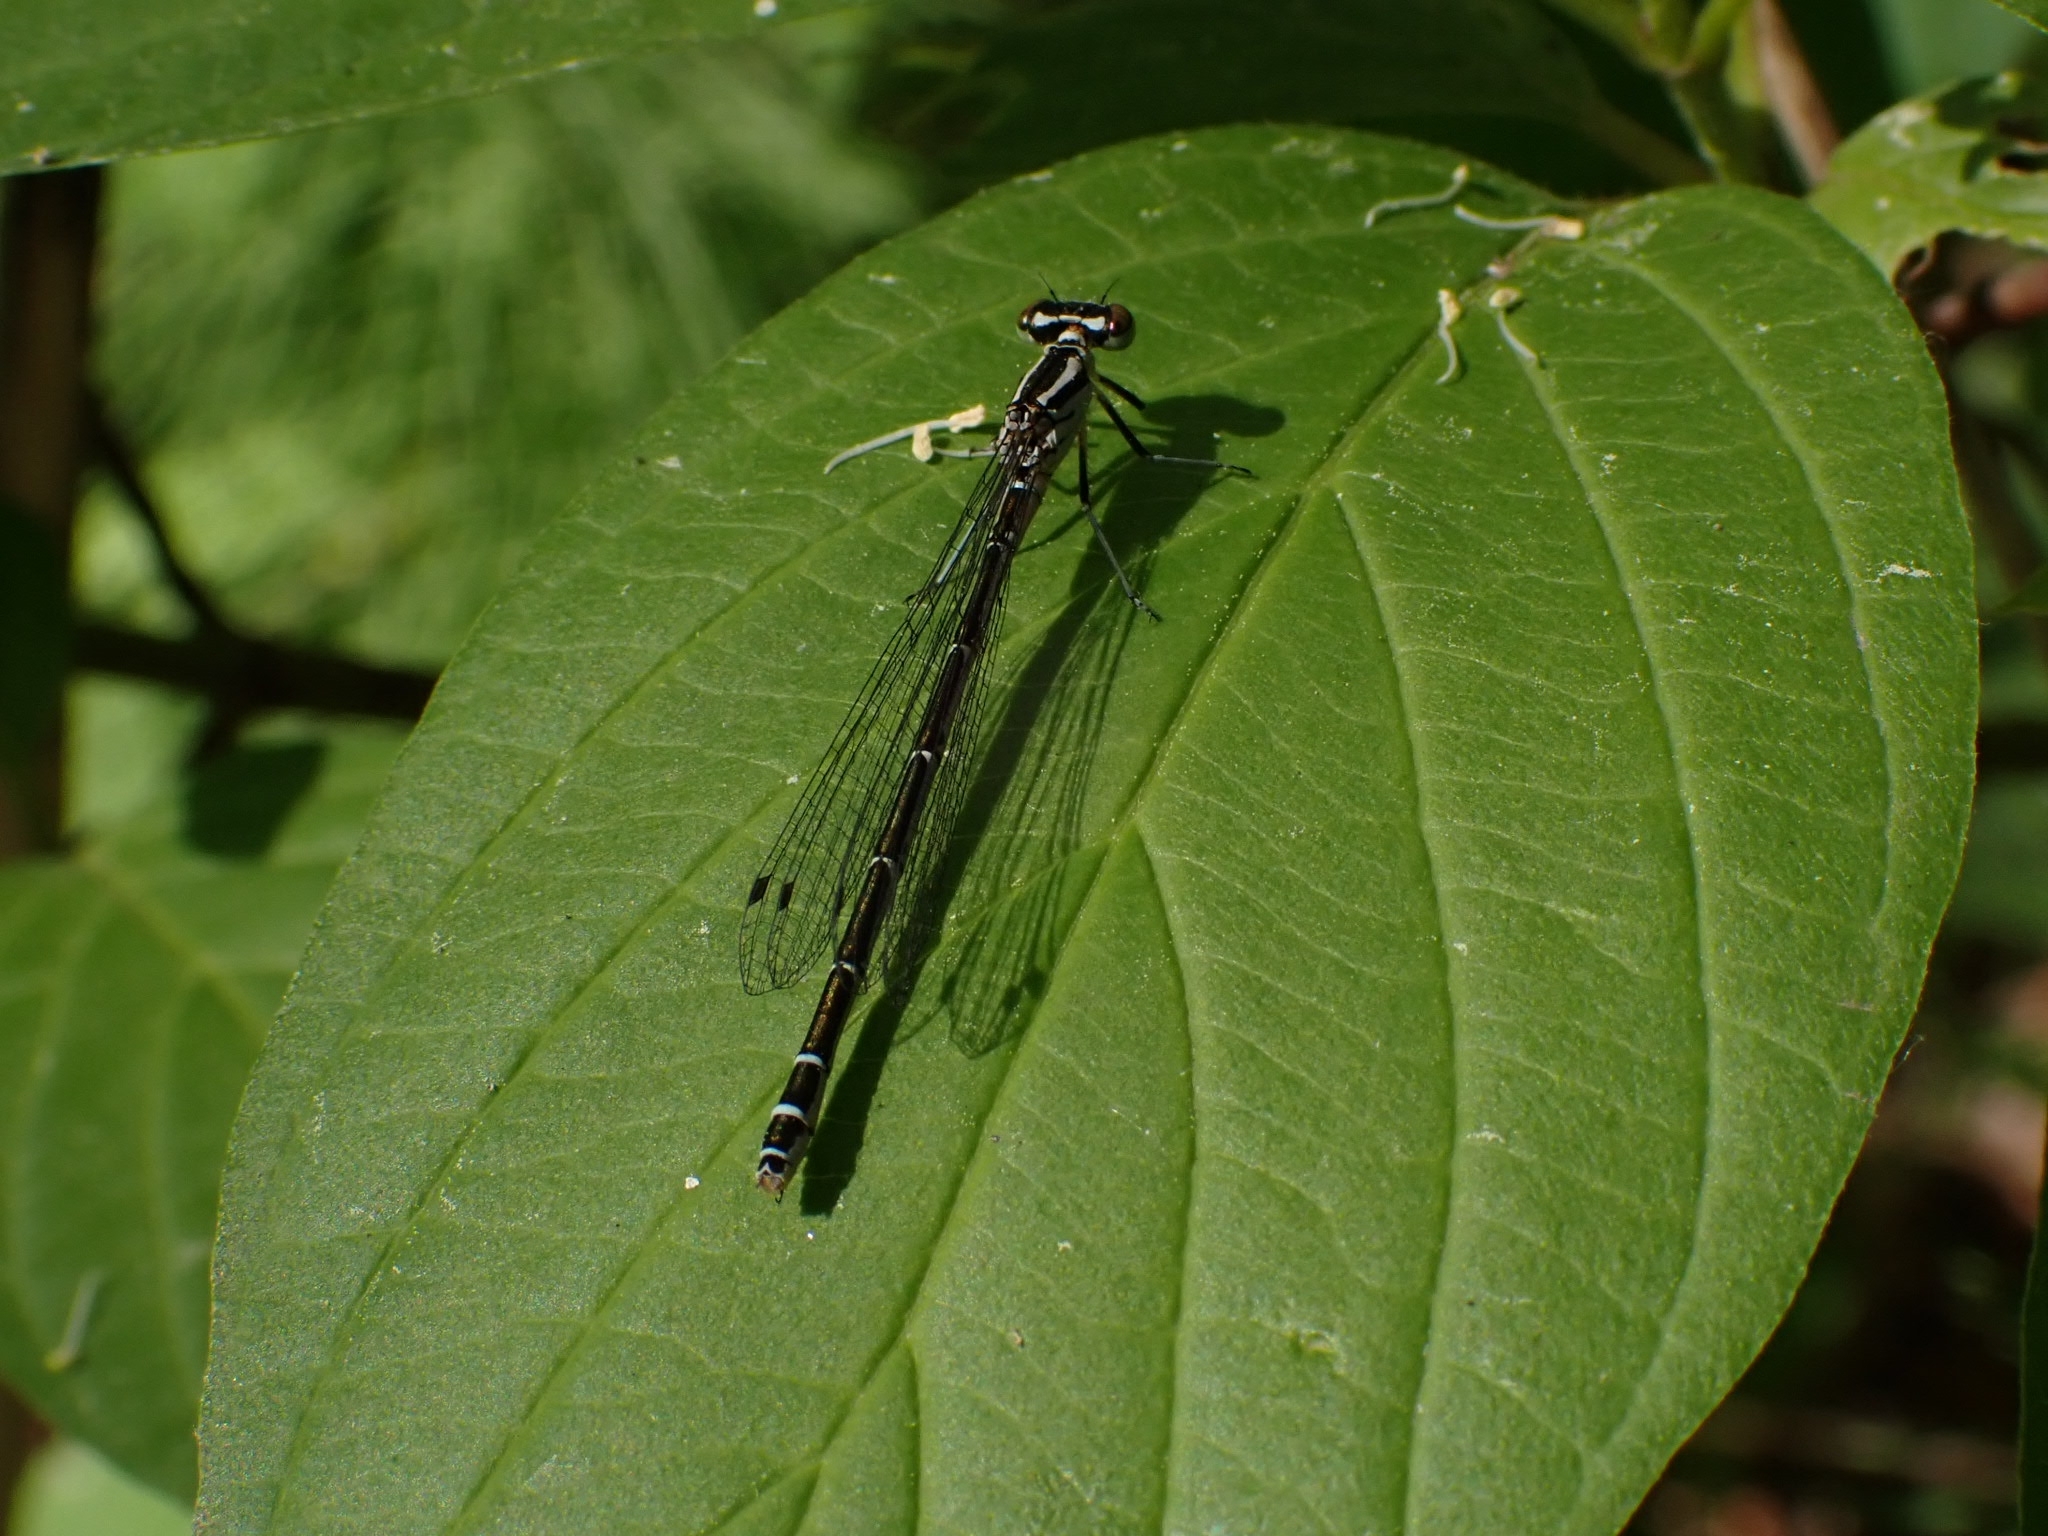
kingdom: Animalia
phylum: Arthropoda
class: Insecta
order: Odonata
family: Coenagrionidae
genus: Coenagrion
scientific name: Coenagrion hastulatum
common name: Spearhead bluet
